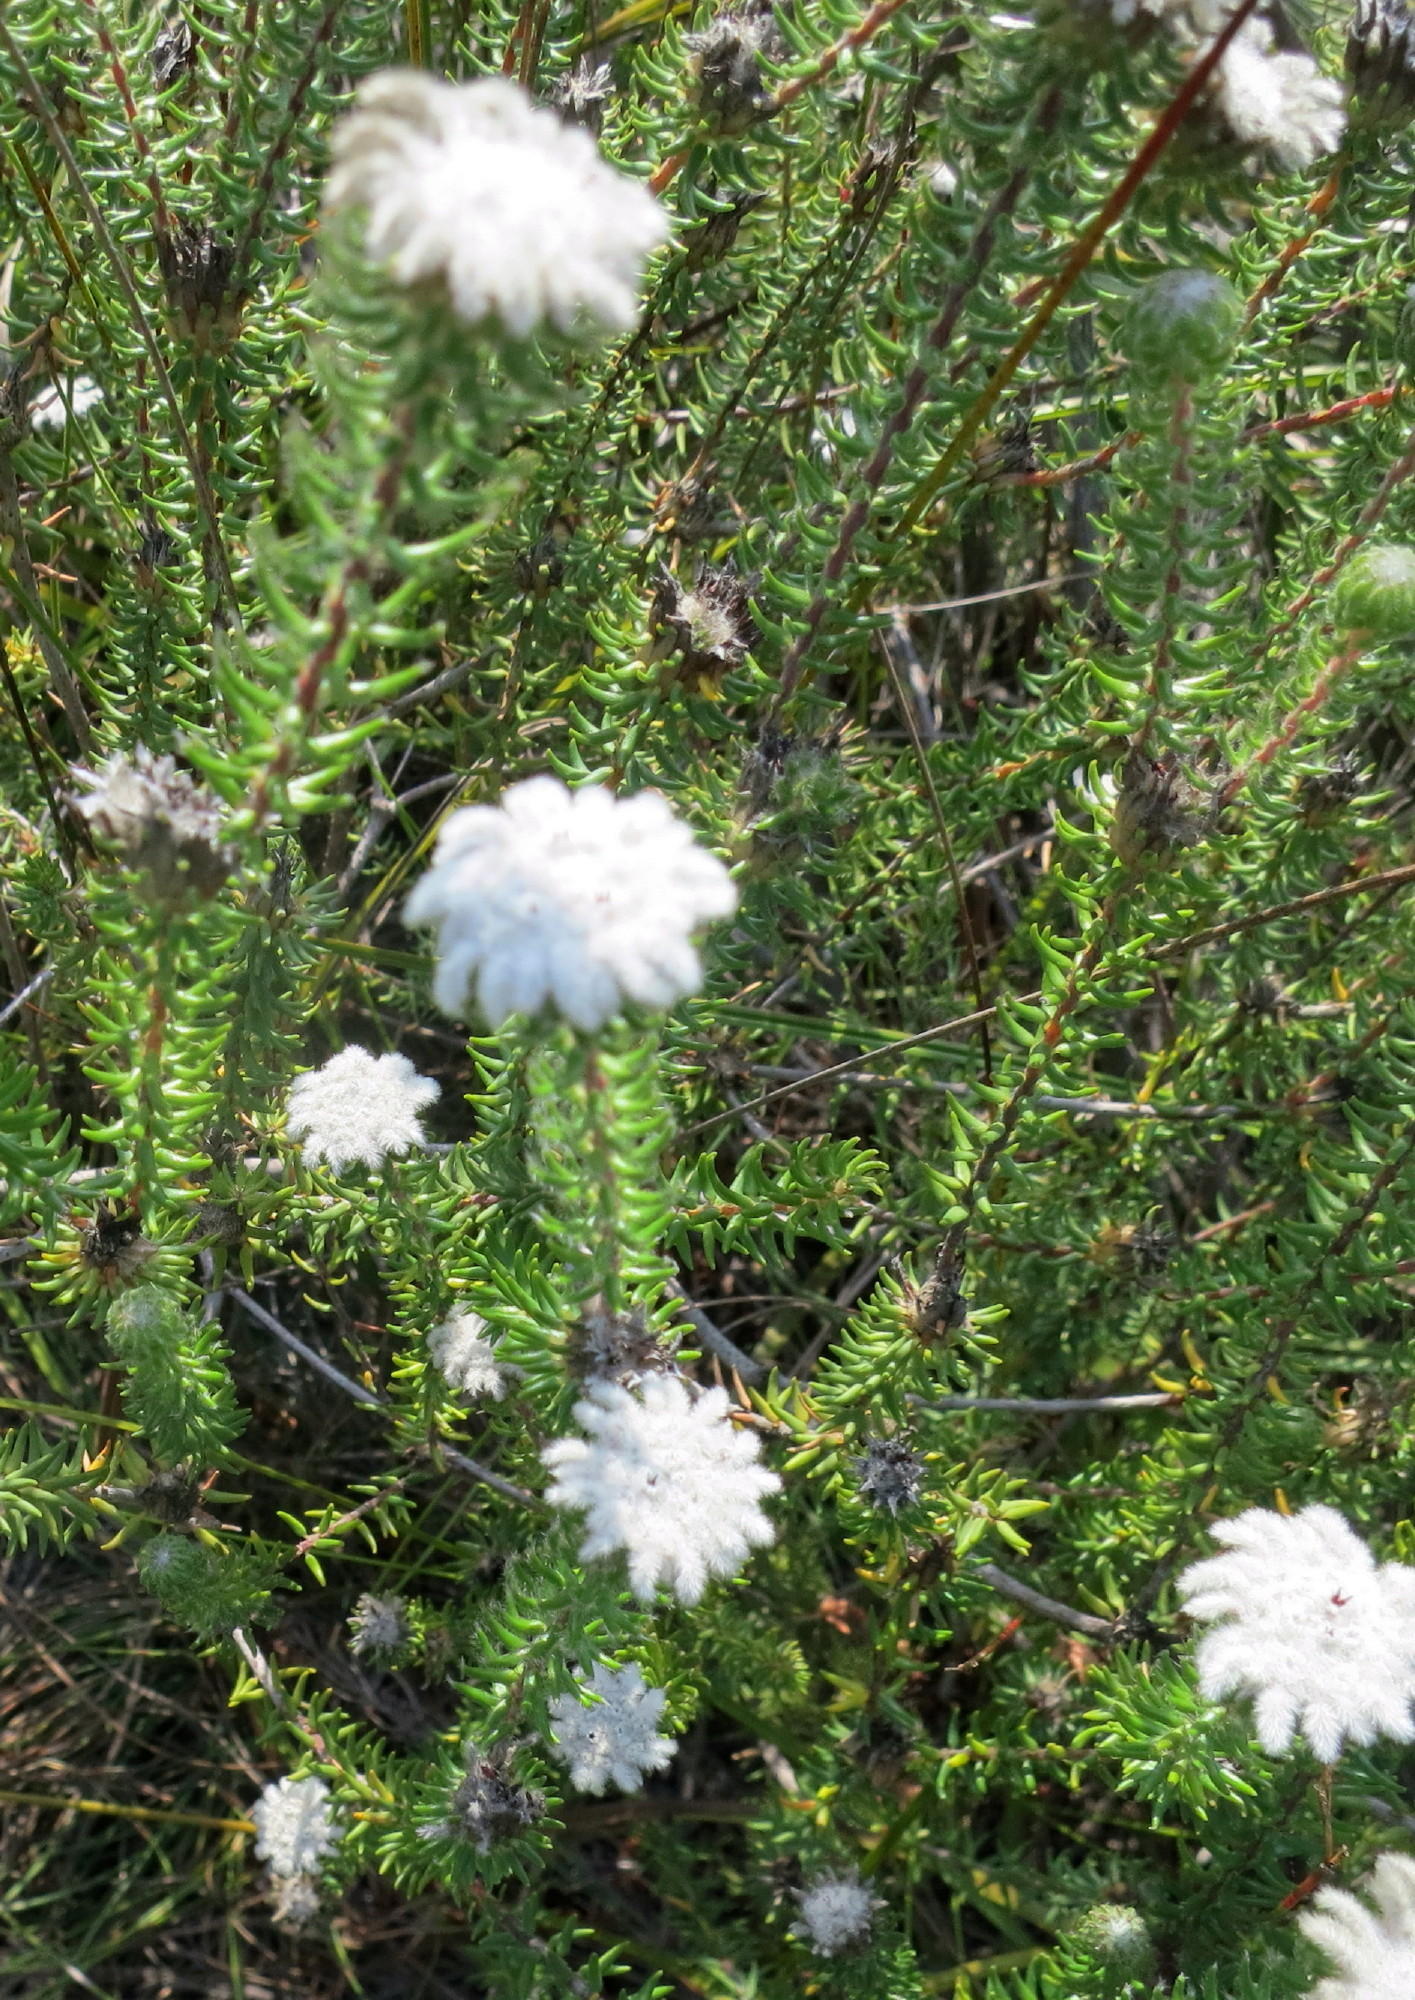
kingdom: Plantae
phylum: Tracheophyta
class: Magnoliopsida
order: Rosales
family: Rhamnaceae
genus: Phylica
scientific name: Phylica curvifolia
